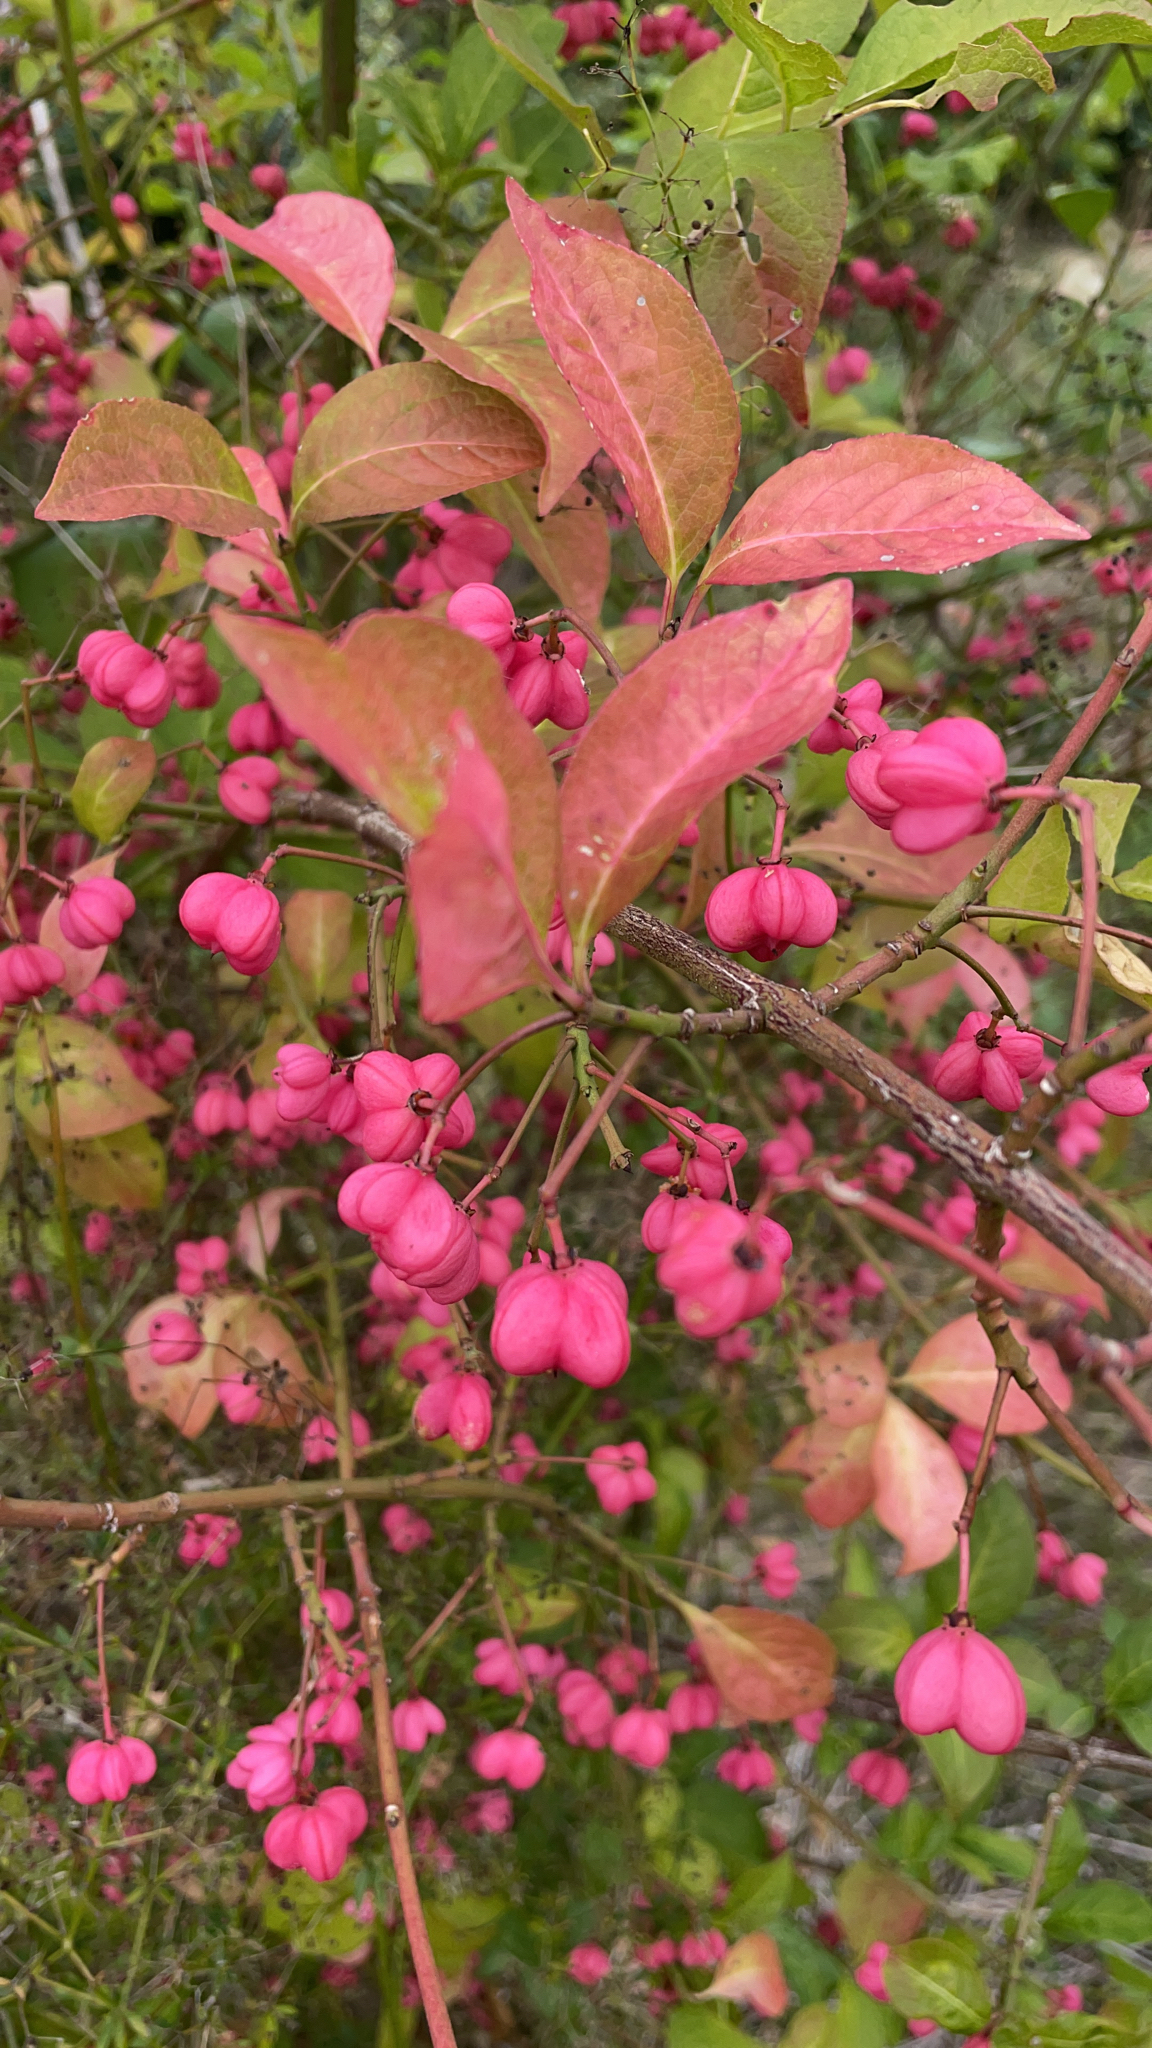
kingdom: Plantae
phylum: Tracheophyta
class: Magnoliopsida
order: Celastrales
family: Celastraceae
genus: Euonymus
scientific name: Euonymus europaeus
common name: Spindle
